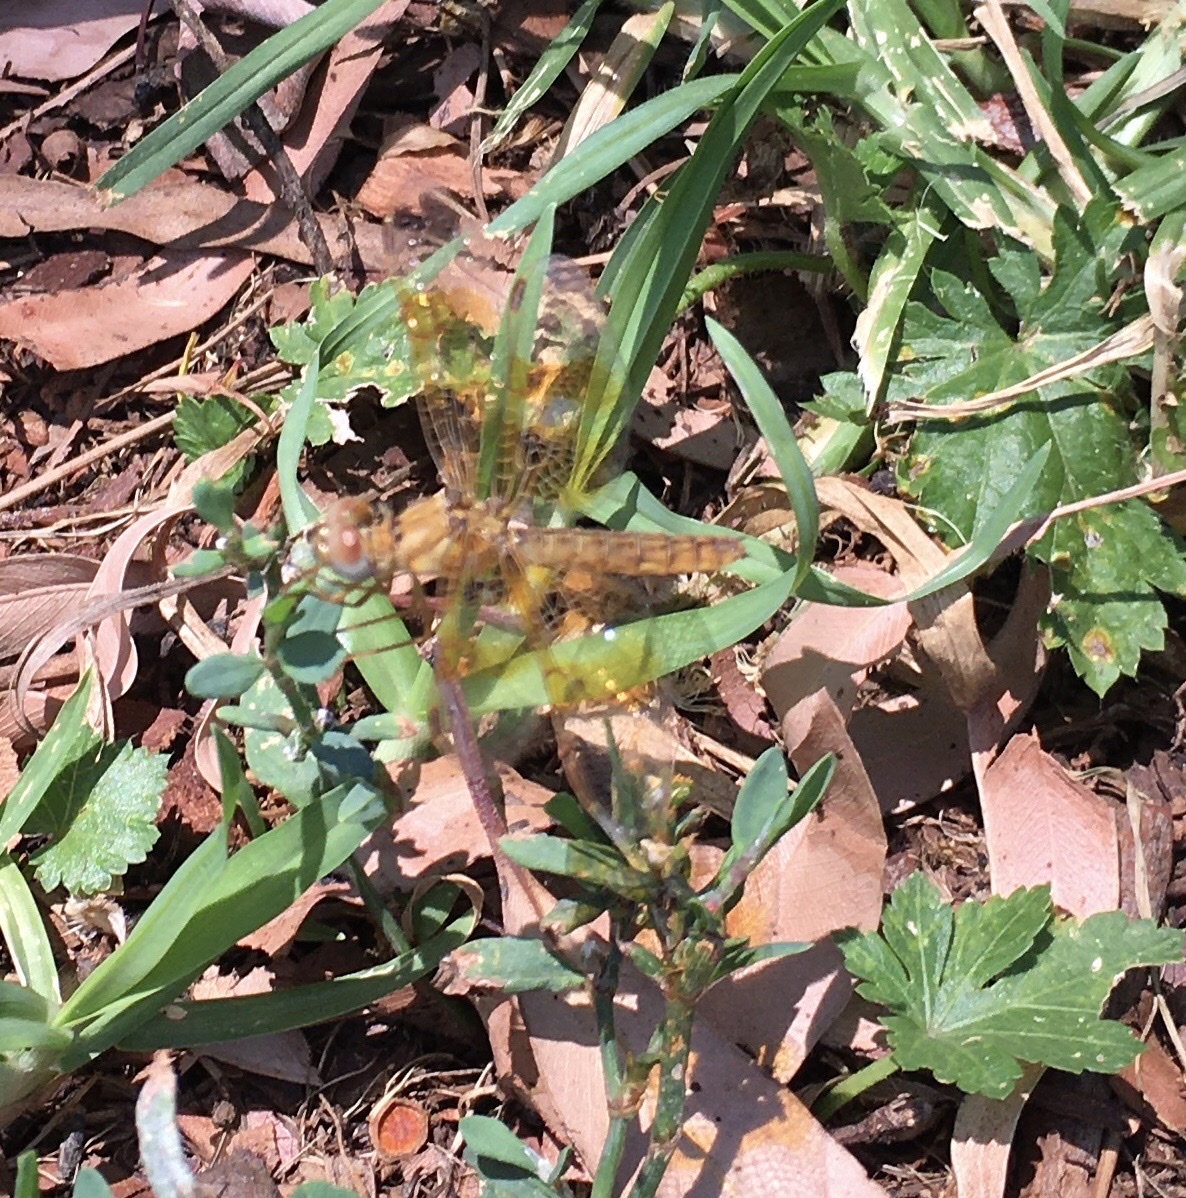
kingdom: Animalia
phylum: Arthropoda
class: Insecta
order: Odonata
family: Libellulidae
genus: Perithemis
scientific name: Perithemis intensa
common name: Mexican amberwing
